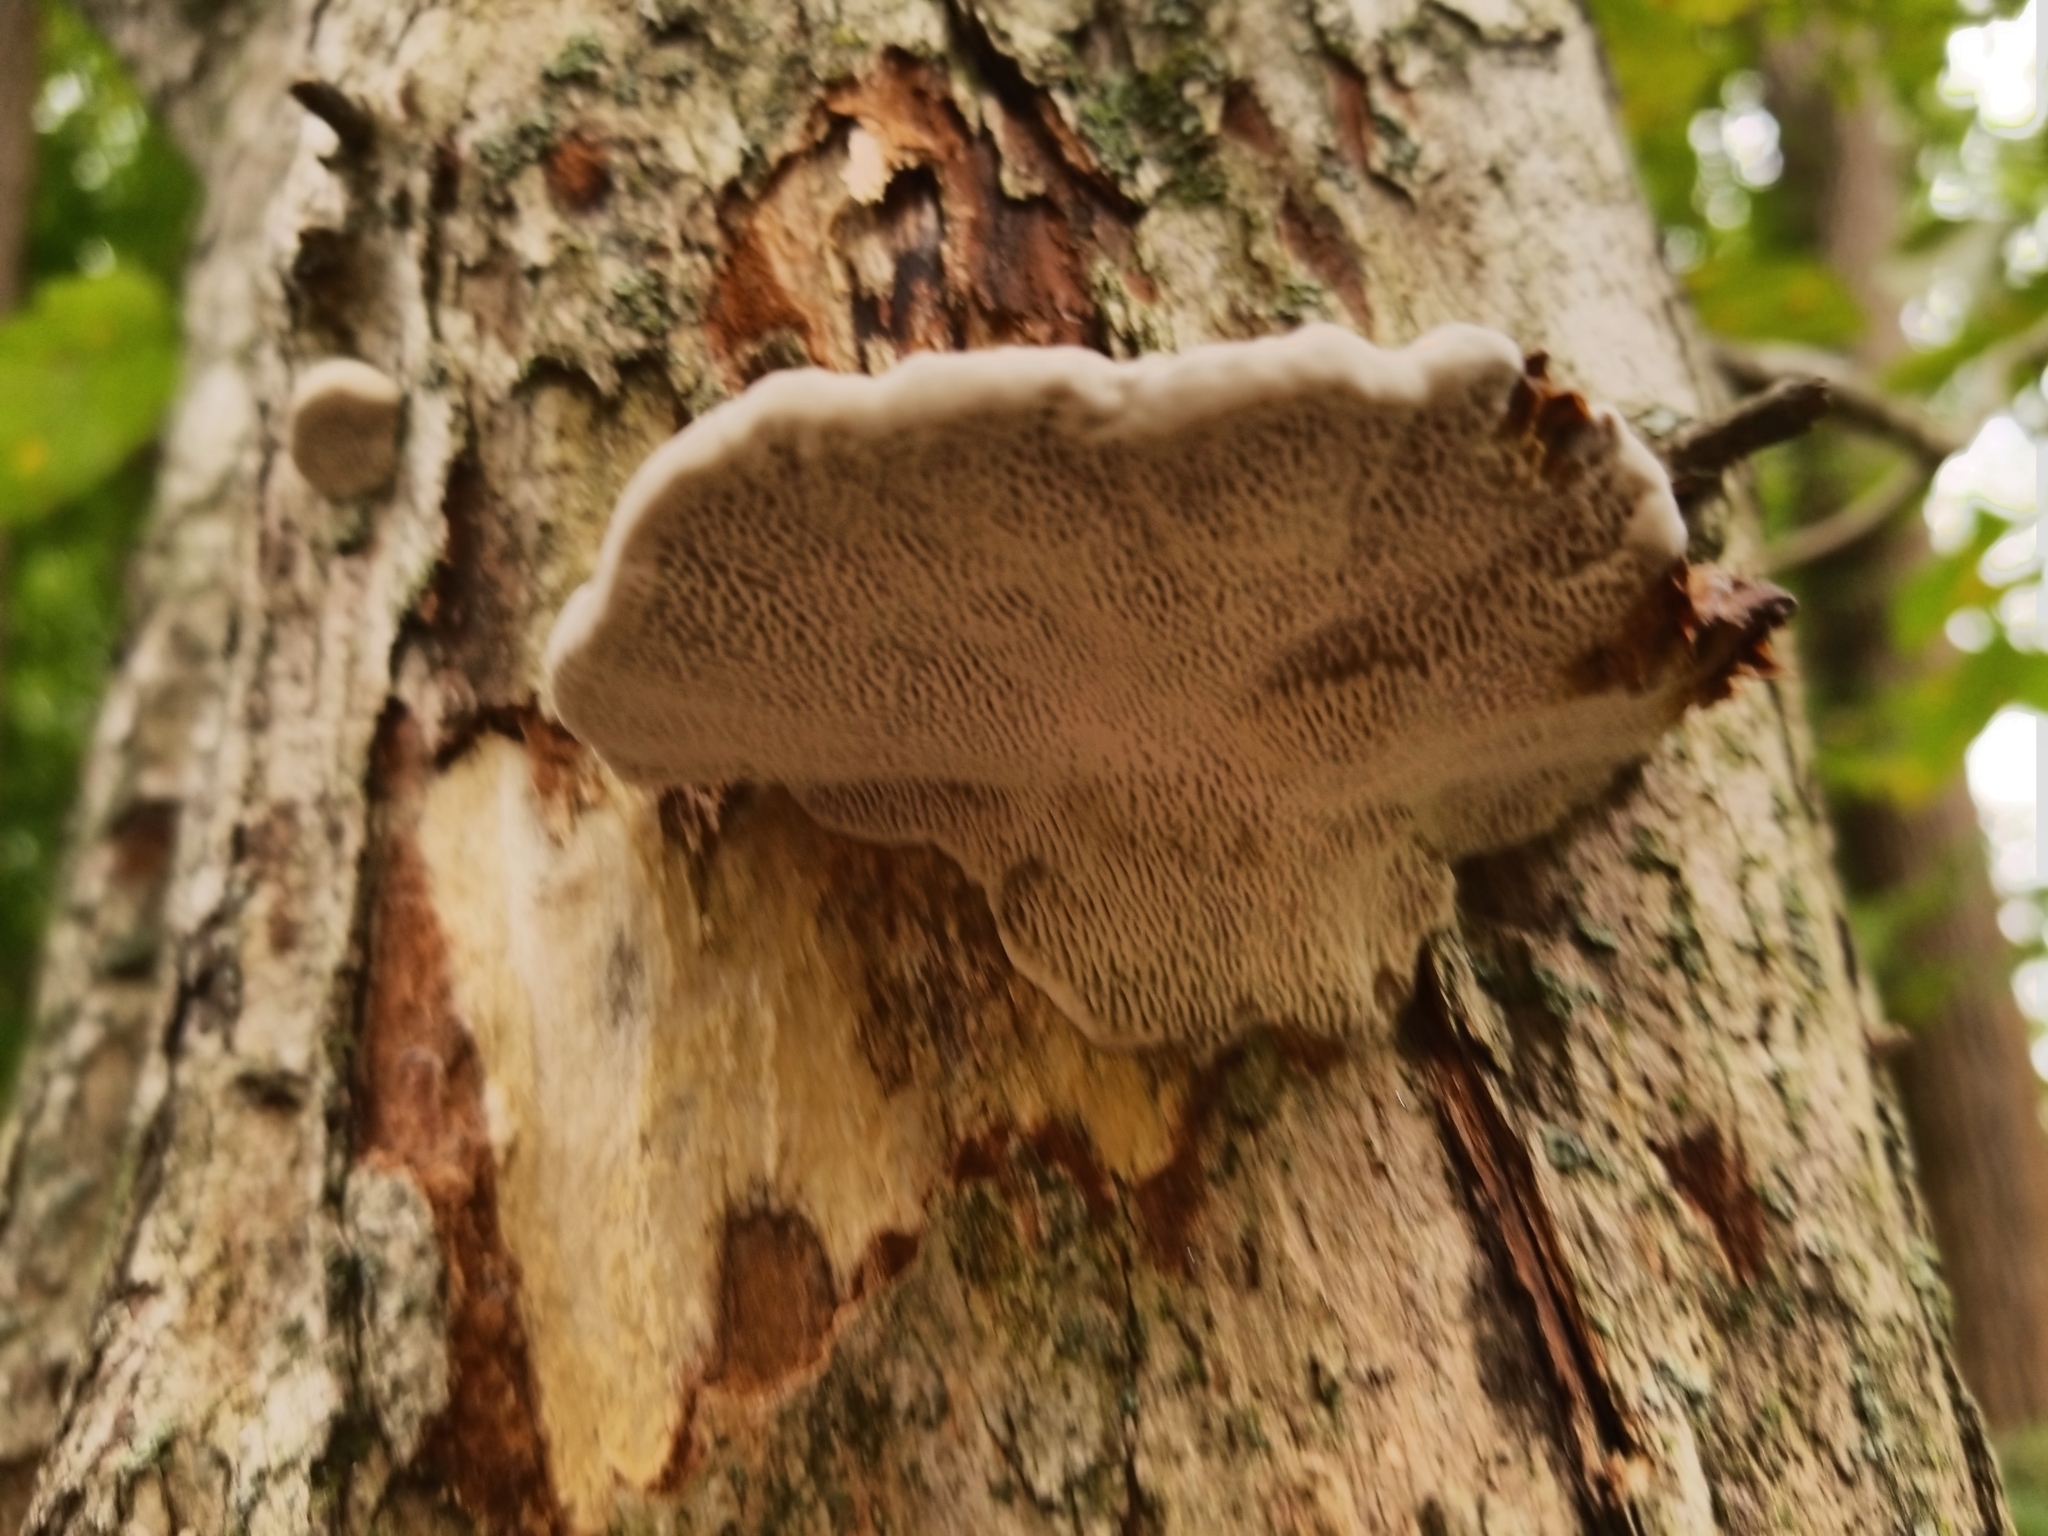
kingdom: Fungi
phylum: Basidiomycota
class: Agaricomycetes
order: Polyporales
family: Polyporaceae
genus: Daedaleopsis
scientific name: Daedaleopsis confragosa
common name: Blushing bracket
